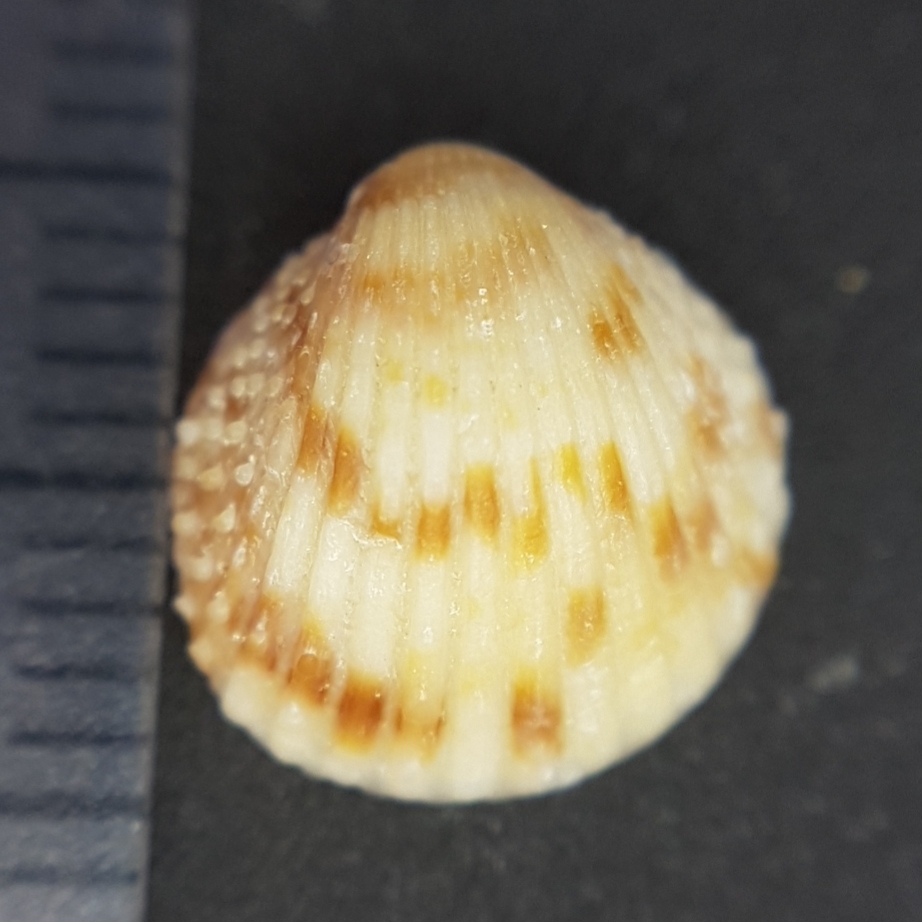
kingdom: Animalia
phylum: Mollusca
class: Bivalvia
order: Cardiida
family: Cardiidae
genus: Papillicardium
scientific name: Papillicardium papillosum
